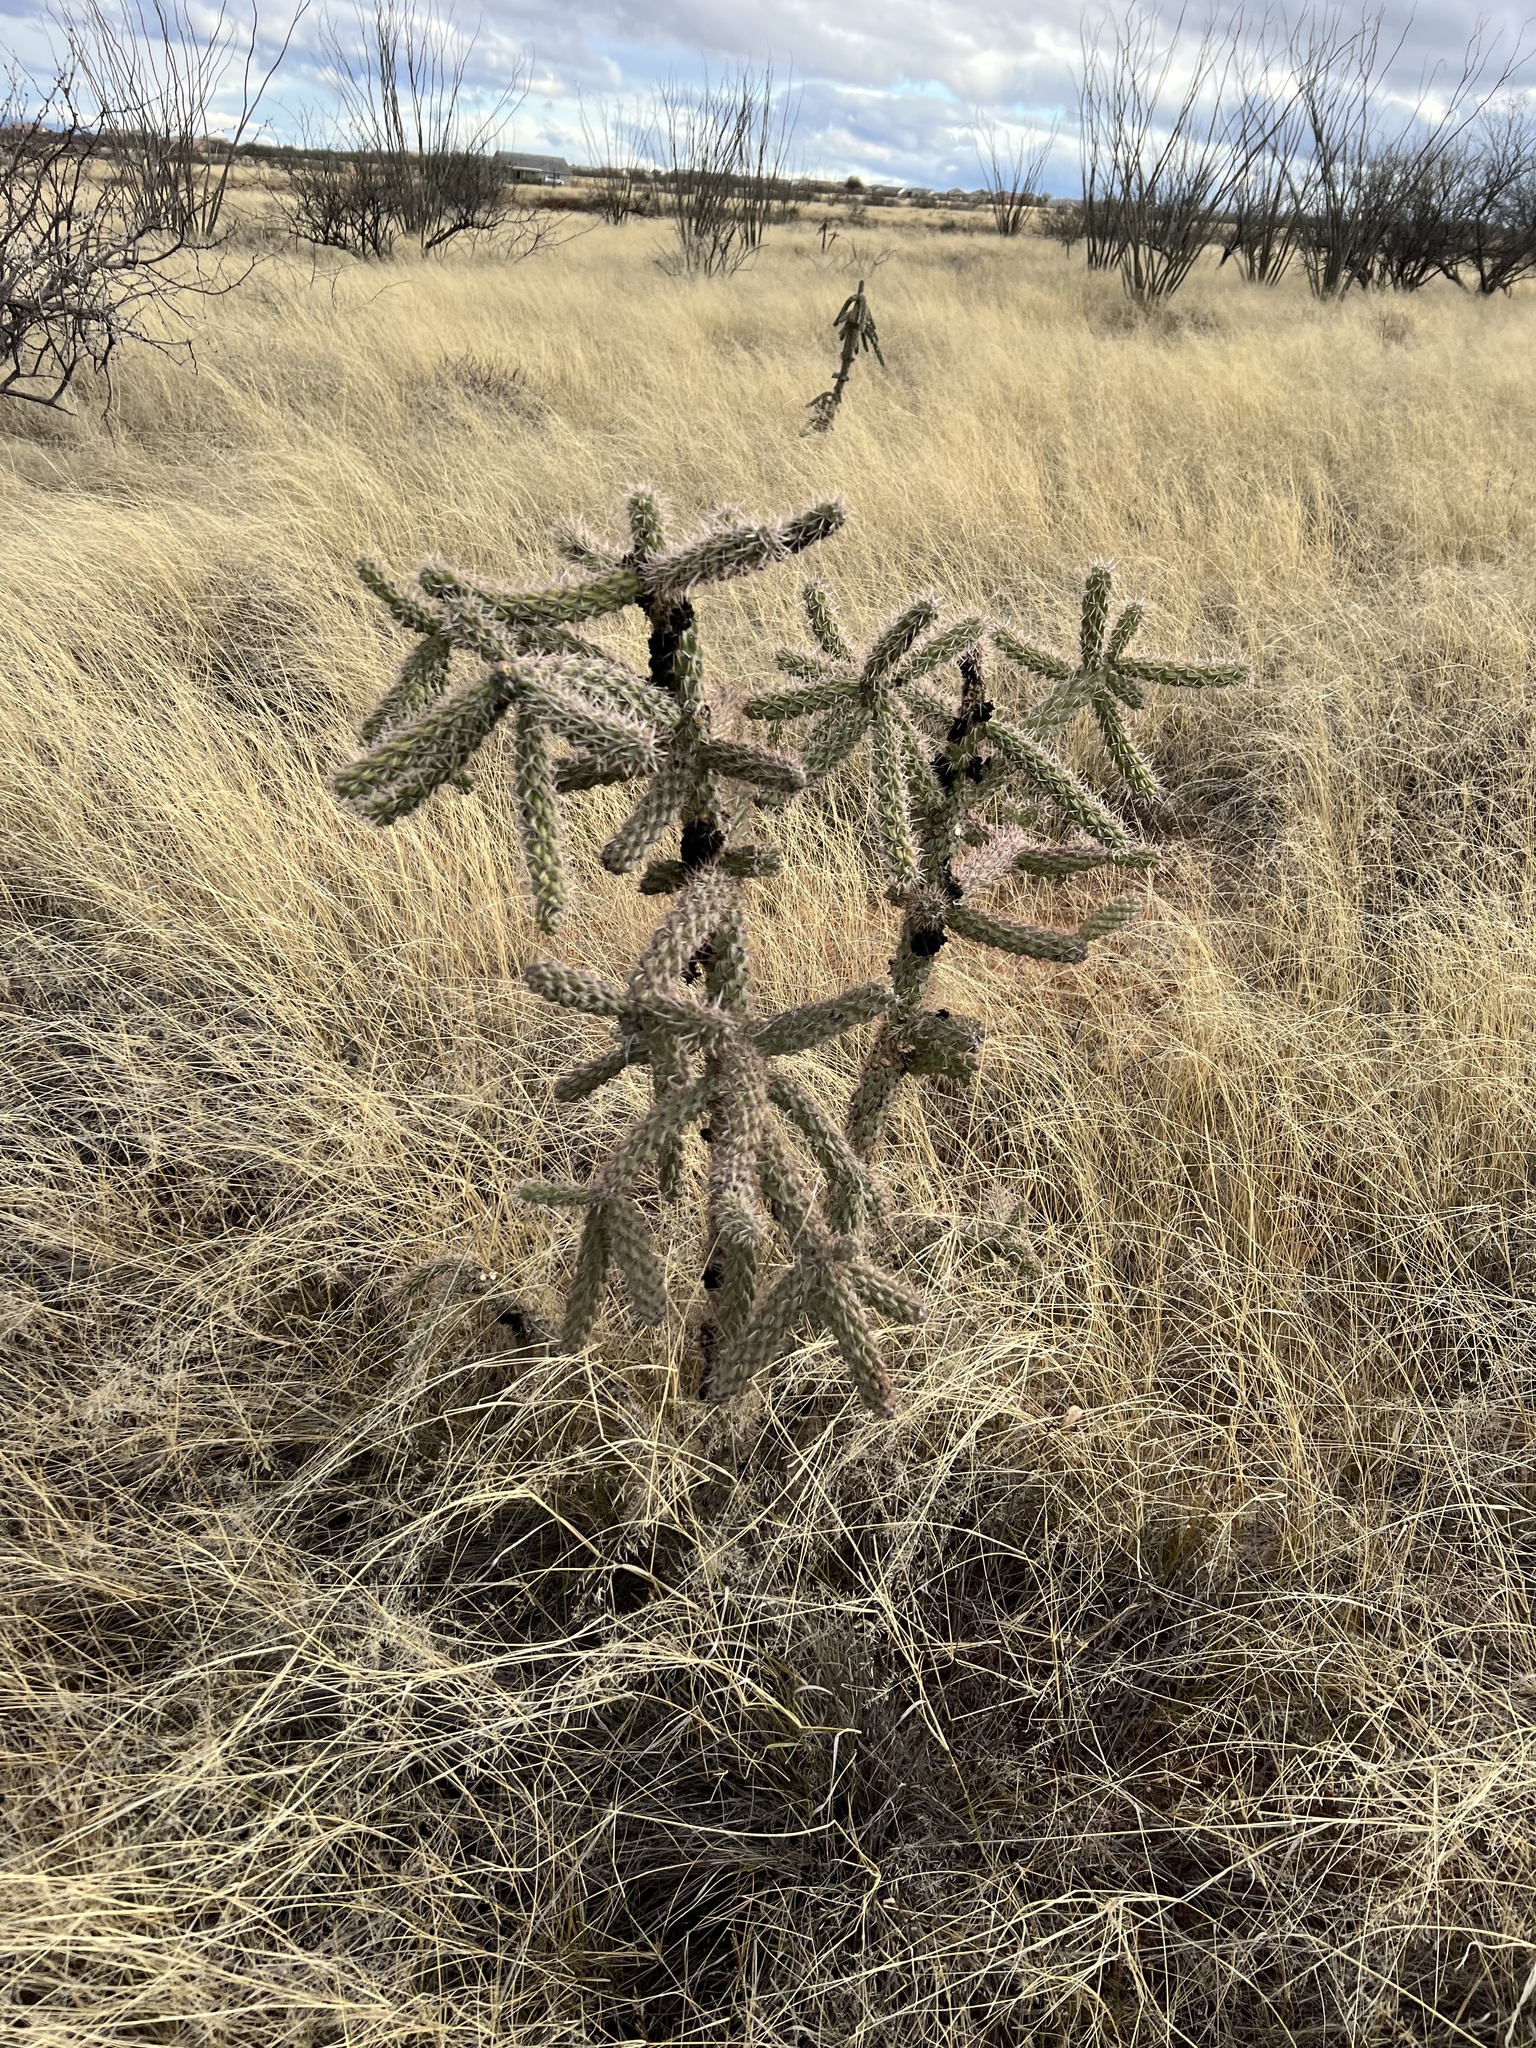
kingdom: Plantae
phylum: Tracheophyta
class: Magnoliopsida
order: Caryophyllales
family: Cactaceae
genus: Cylindropuntia
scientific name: Cylindropuntia imbricata
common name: Candelabrum cactus
